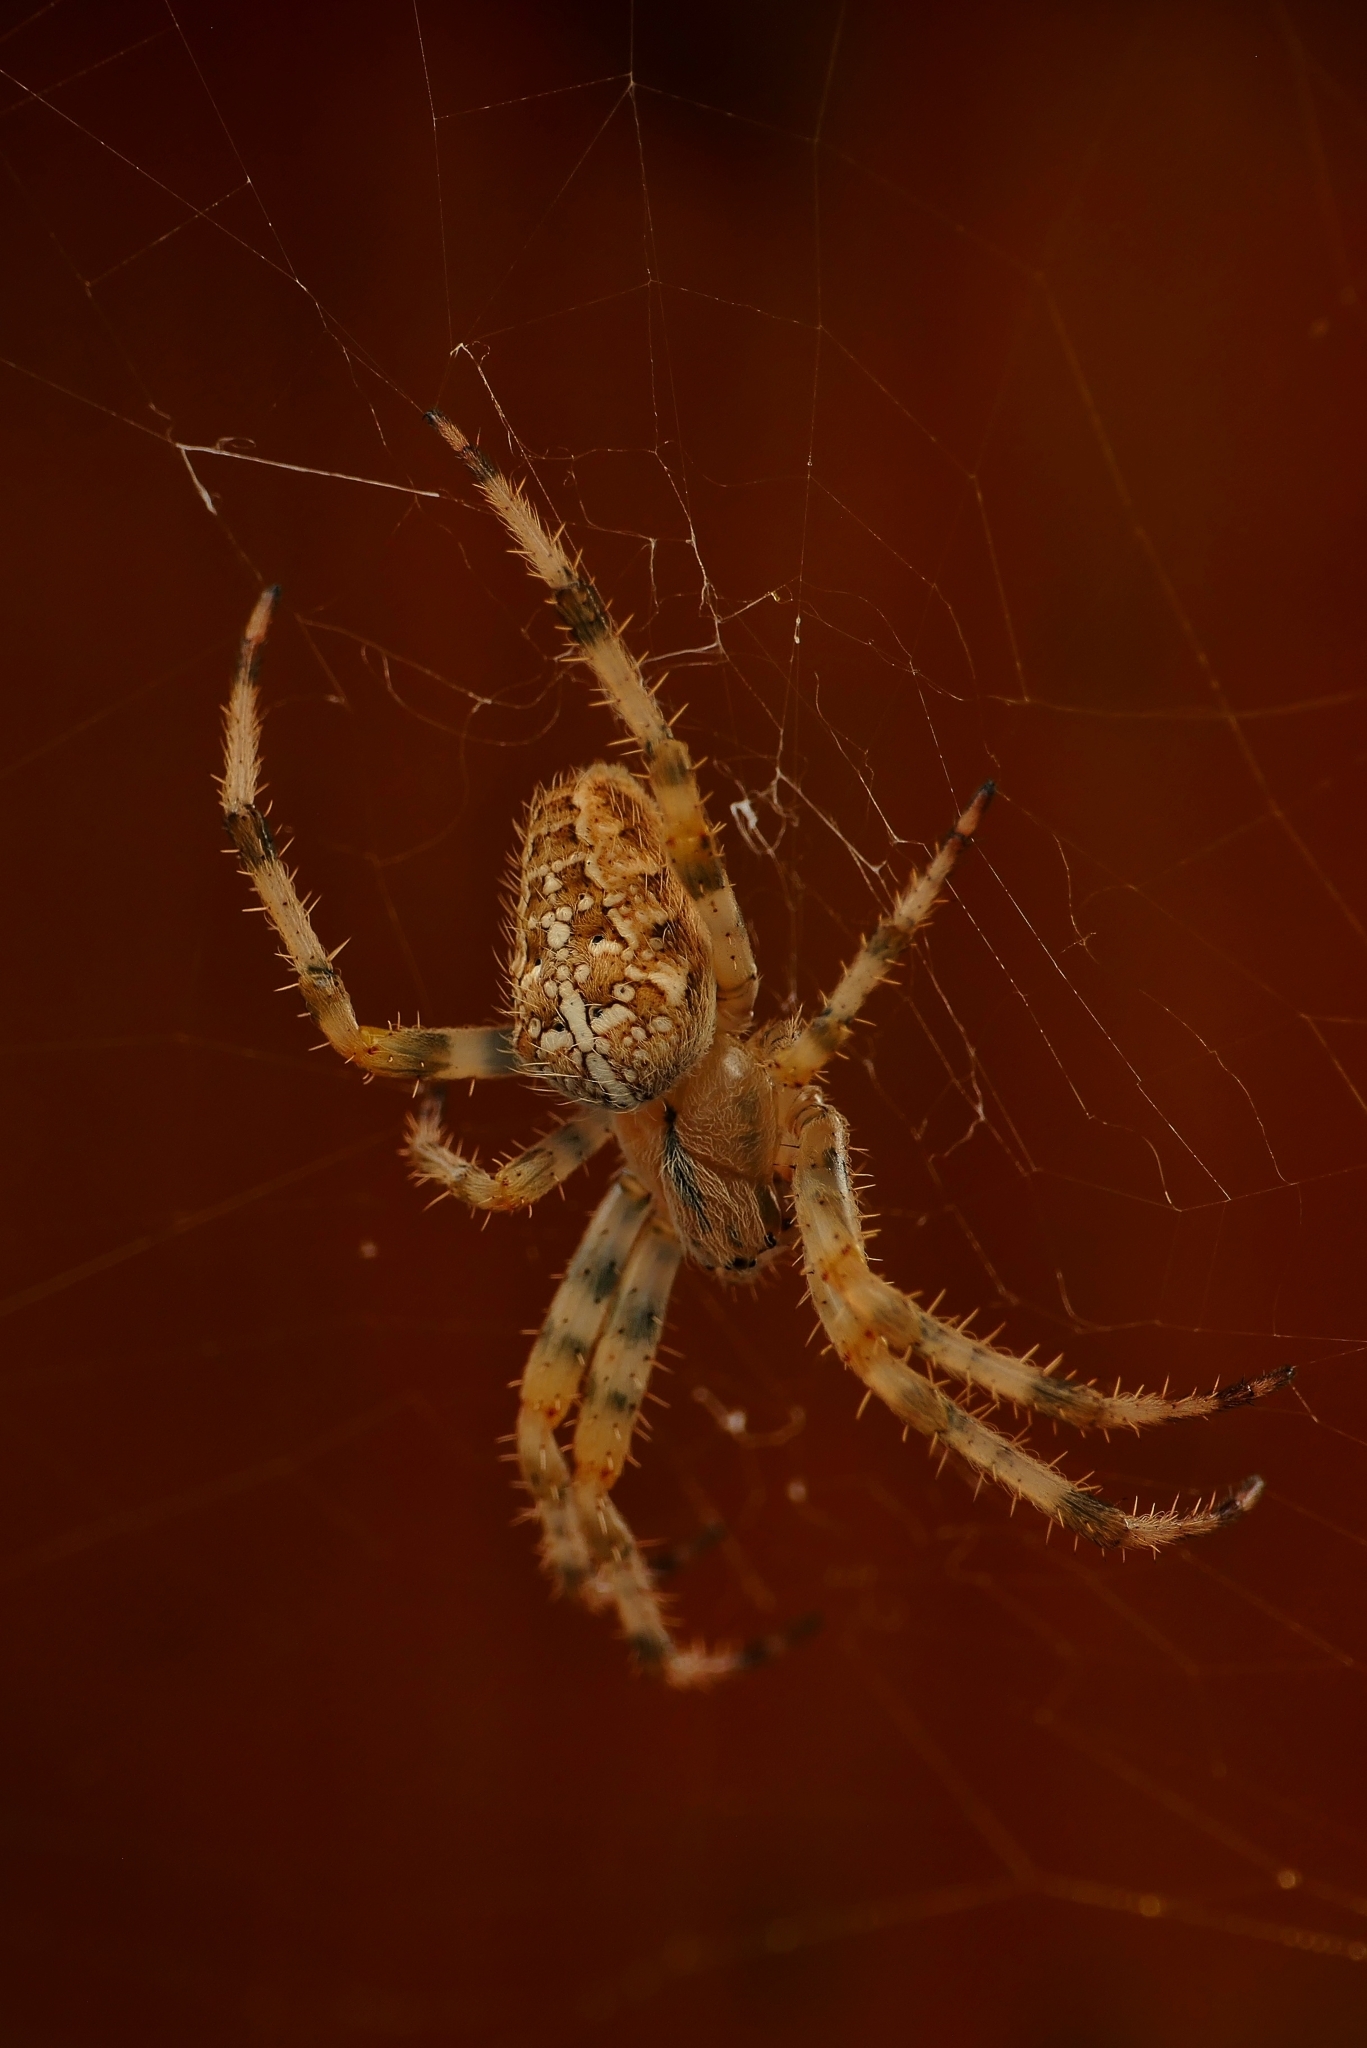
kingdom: Animalia
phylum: Arthropoda
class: Arachnida
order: Araneae
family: Araneidae
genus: Araneus
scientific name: Araneus diadematus
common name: Cross orbweaver
